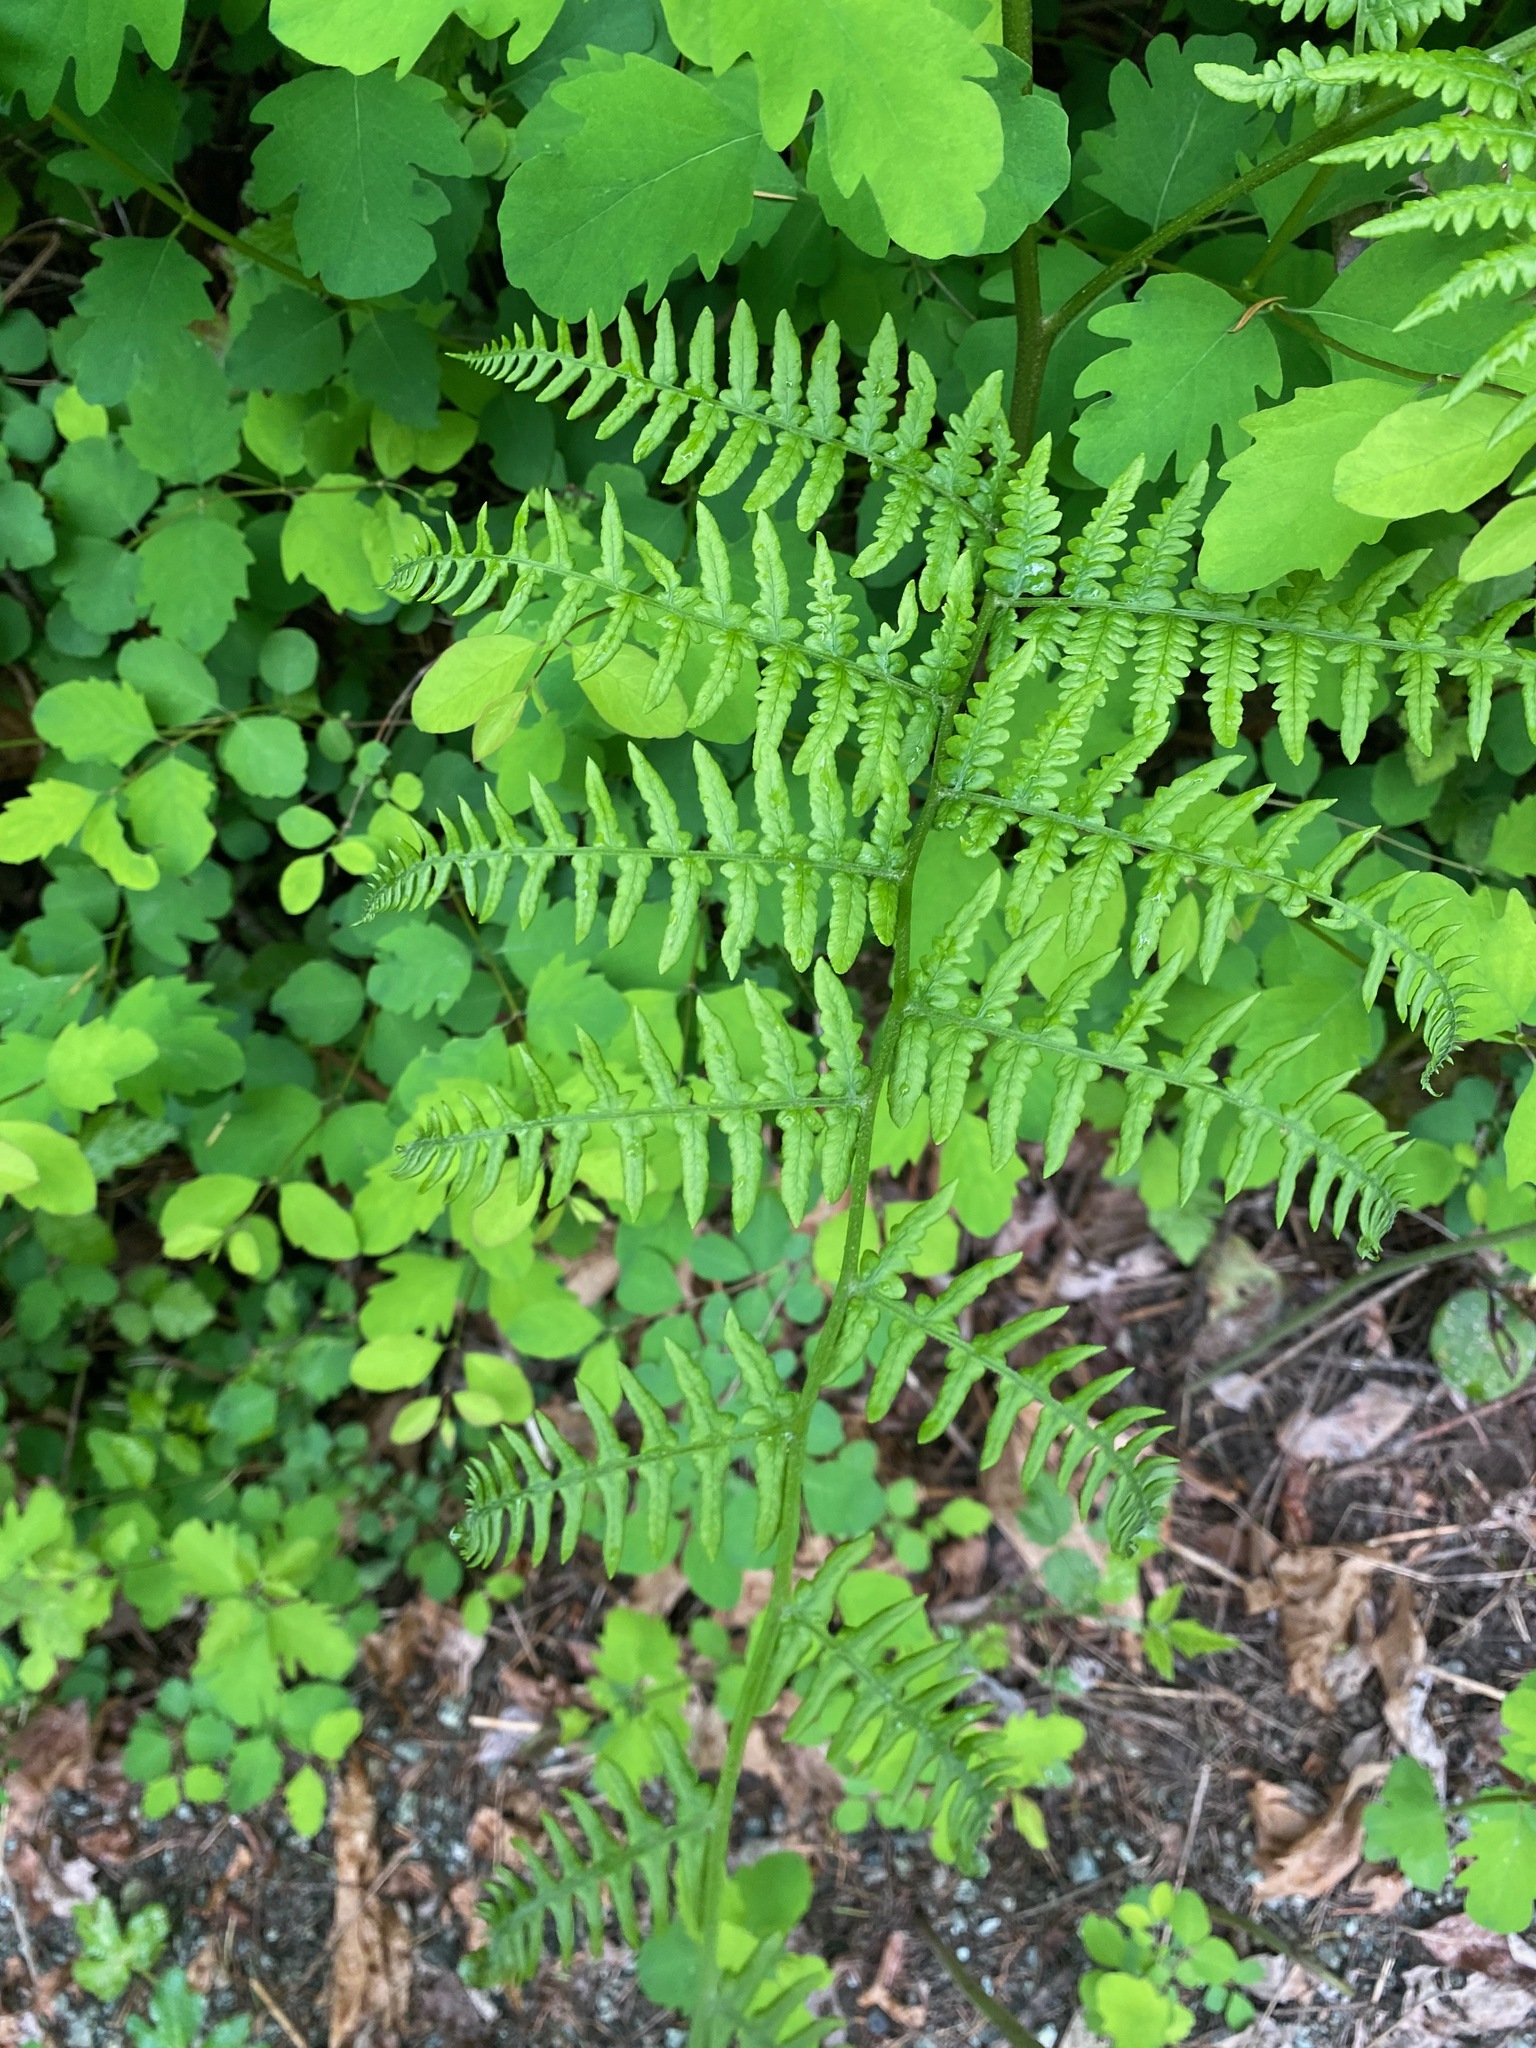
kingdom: Plantae
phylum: Tracheophyta
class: Polypodiopsida
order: Polypodiales
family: Dennstaedtiaceae
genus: Pteridium
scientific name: Pteridium aquilinum
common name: Bracken
